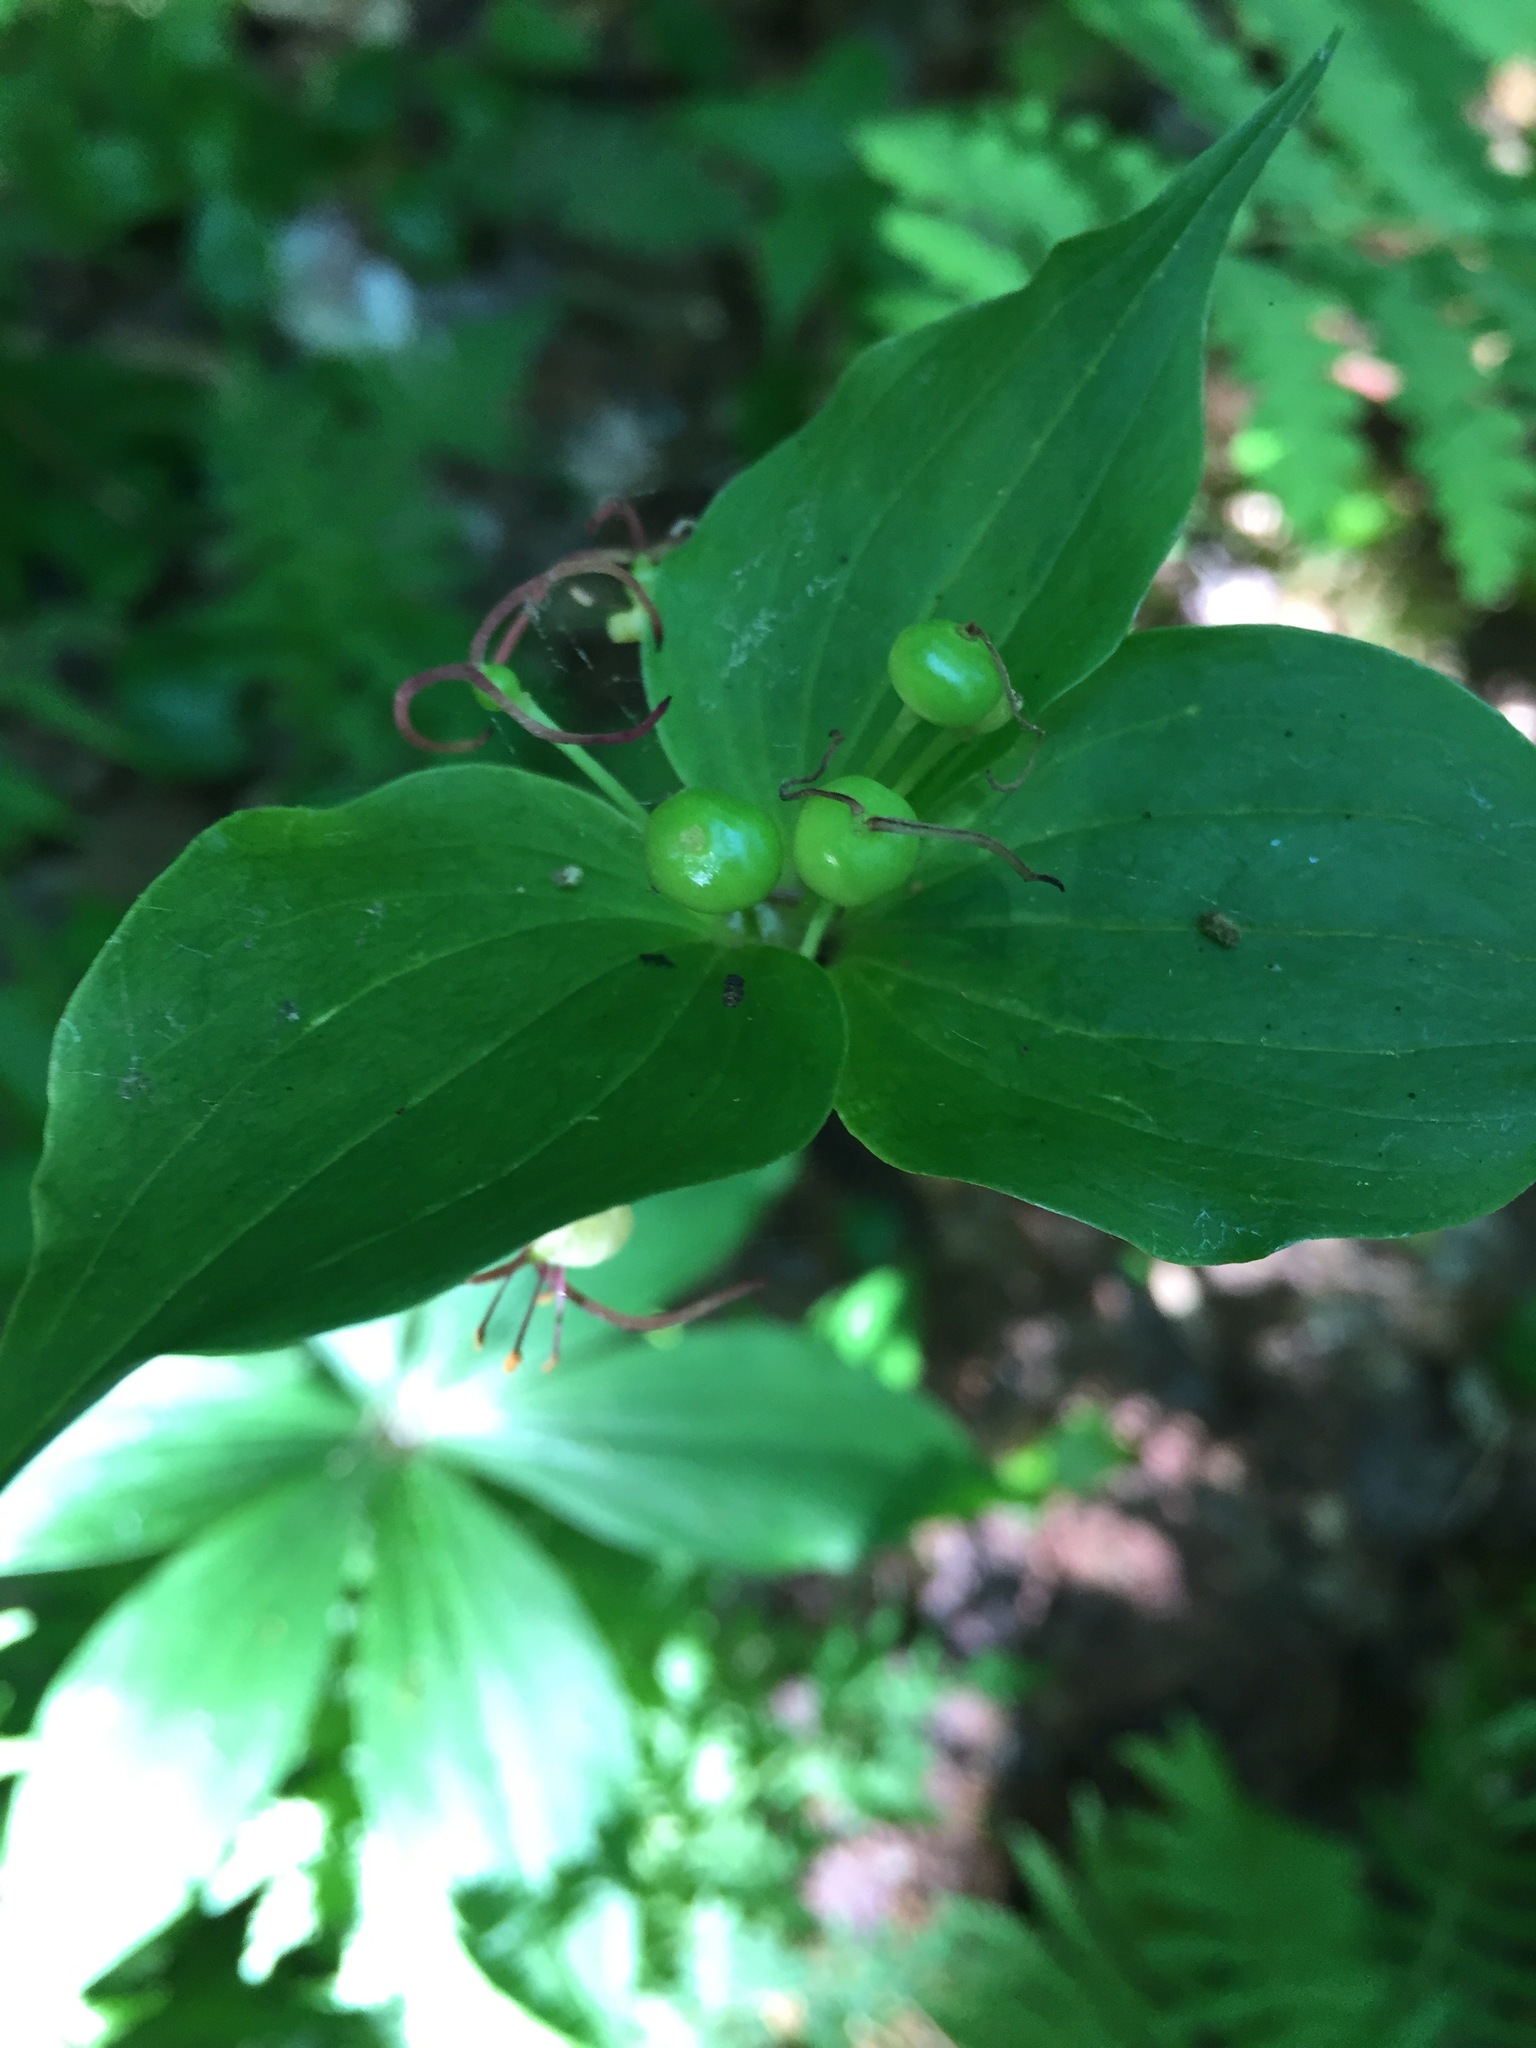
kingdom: Plantae
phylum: Tracheophyta
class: Liliopsida
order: Liliales
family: Liliaceae
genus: Medeola
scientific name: Medeola virginiana
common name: Indian cucumber-root
